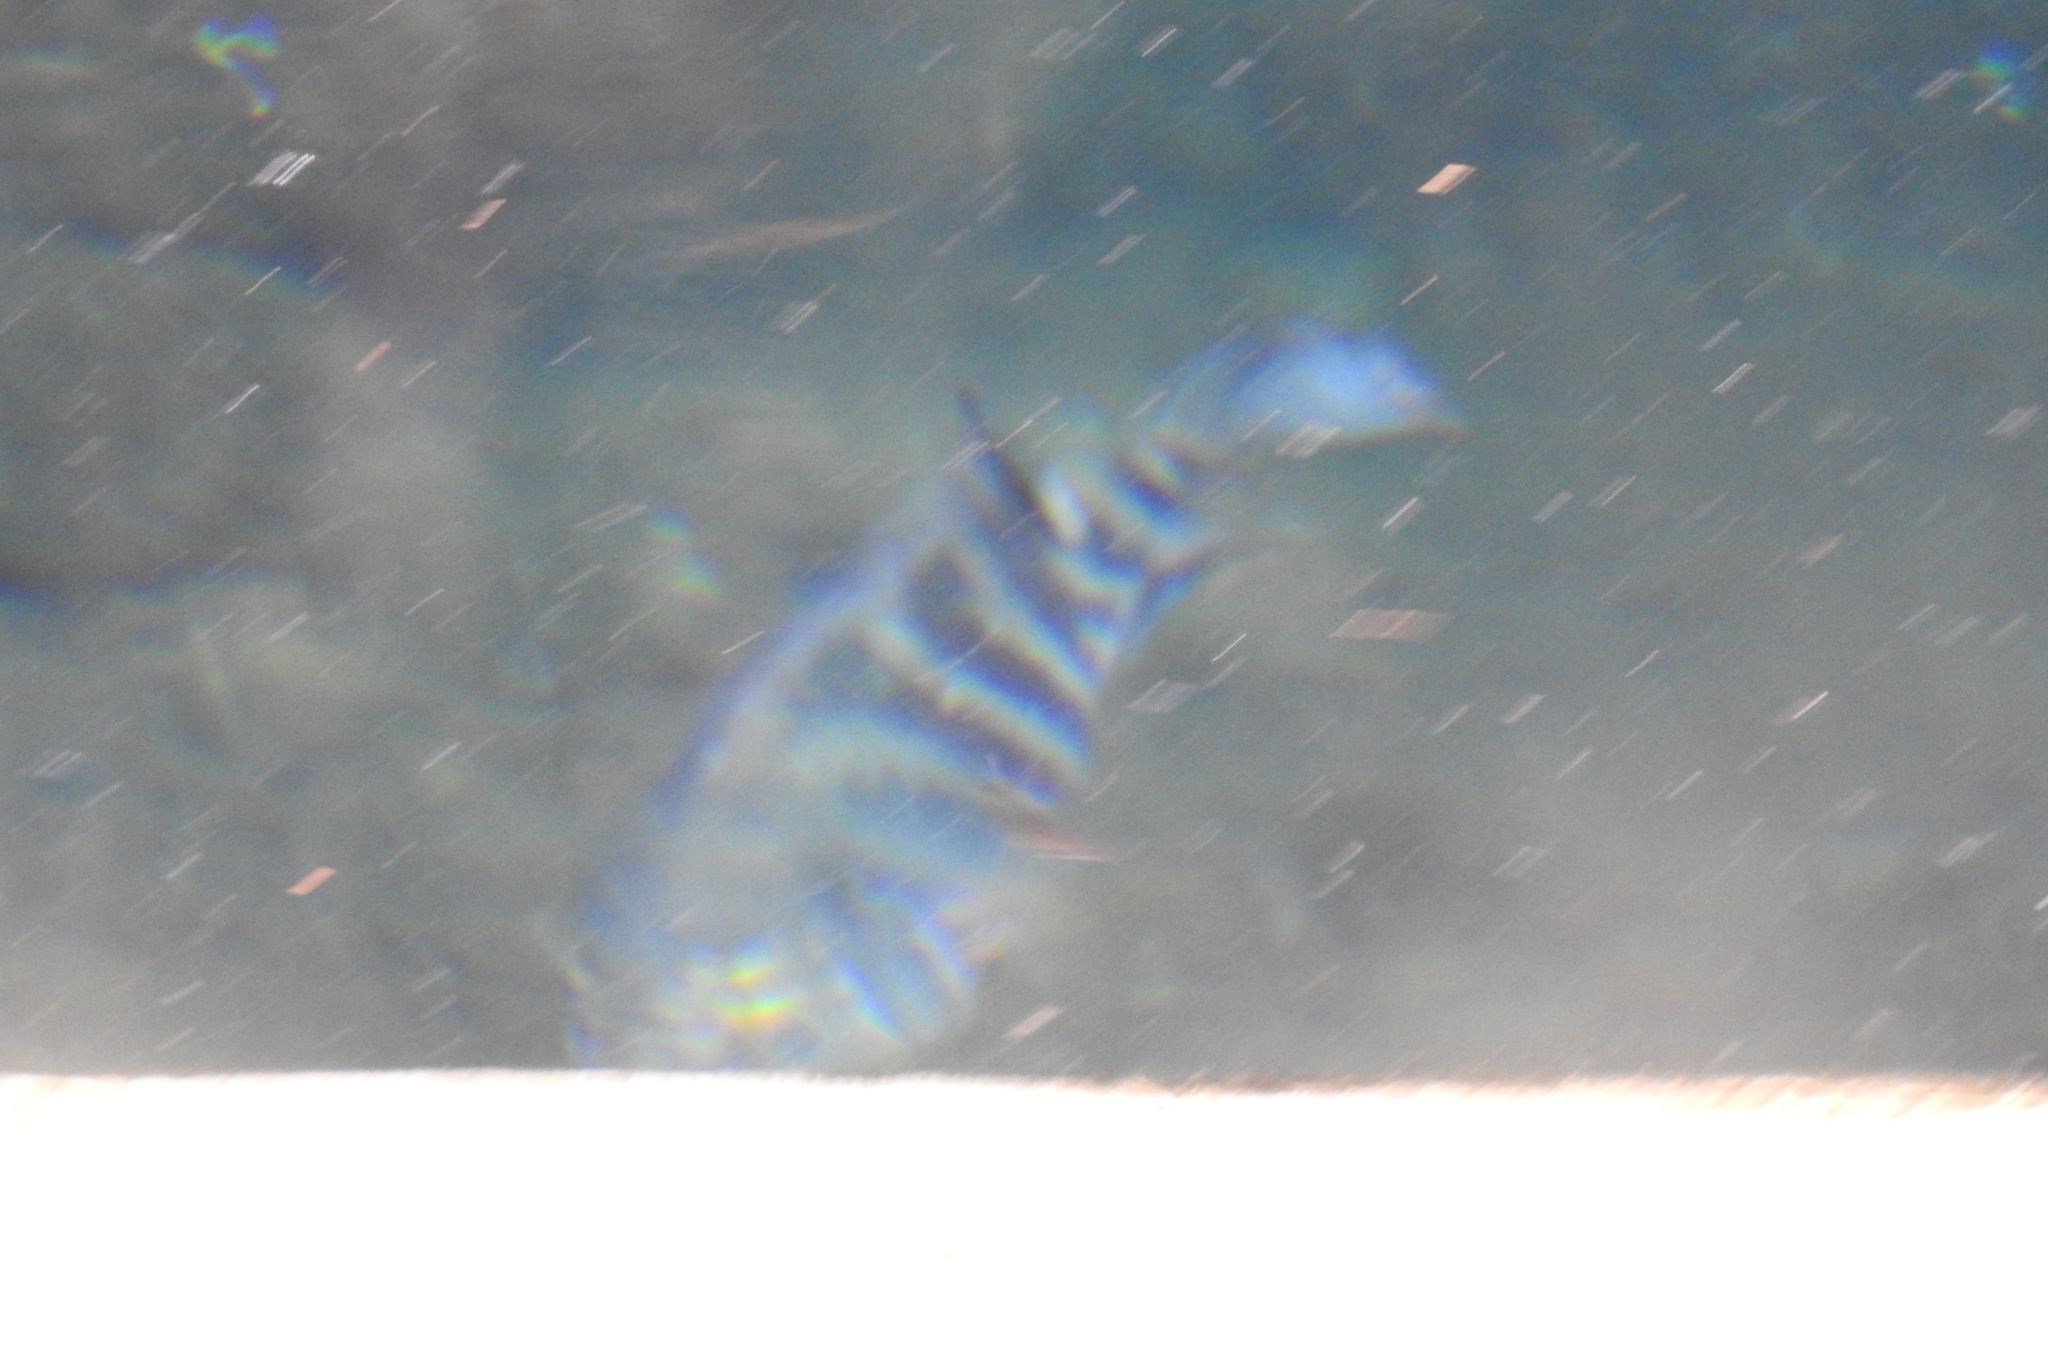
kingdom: Animalia
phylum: Chordata
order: Perciformes
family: Cichlidae
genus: Mayaheros
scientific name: Mayaheros urophthalmus
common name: Mayan cichlid
